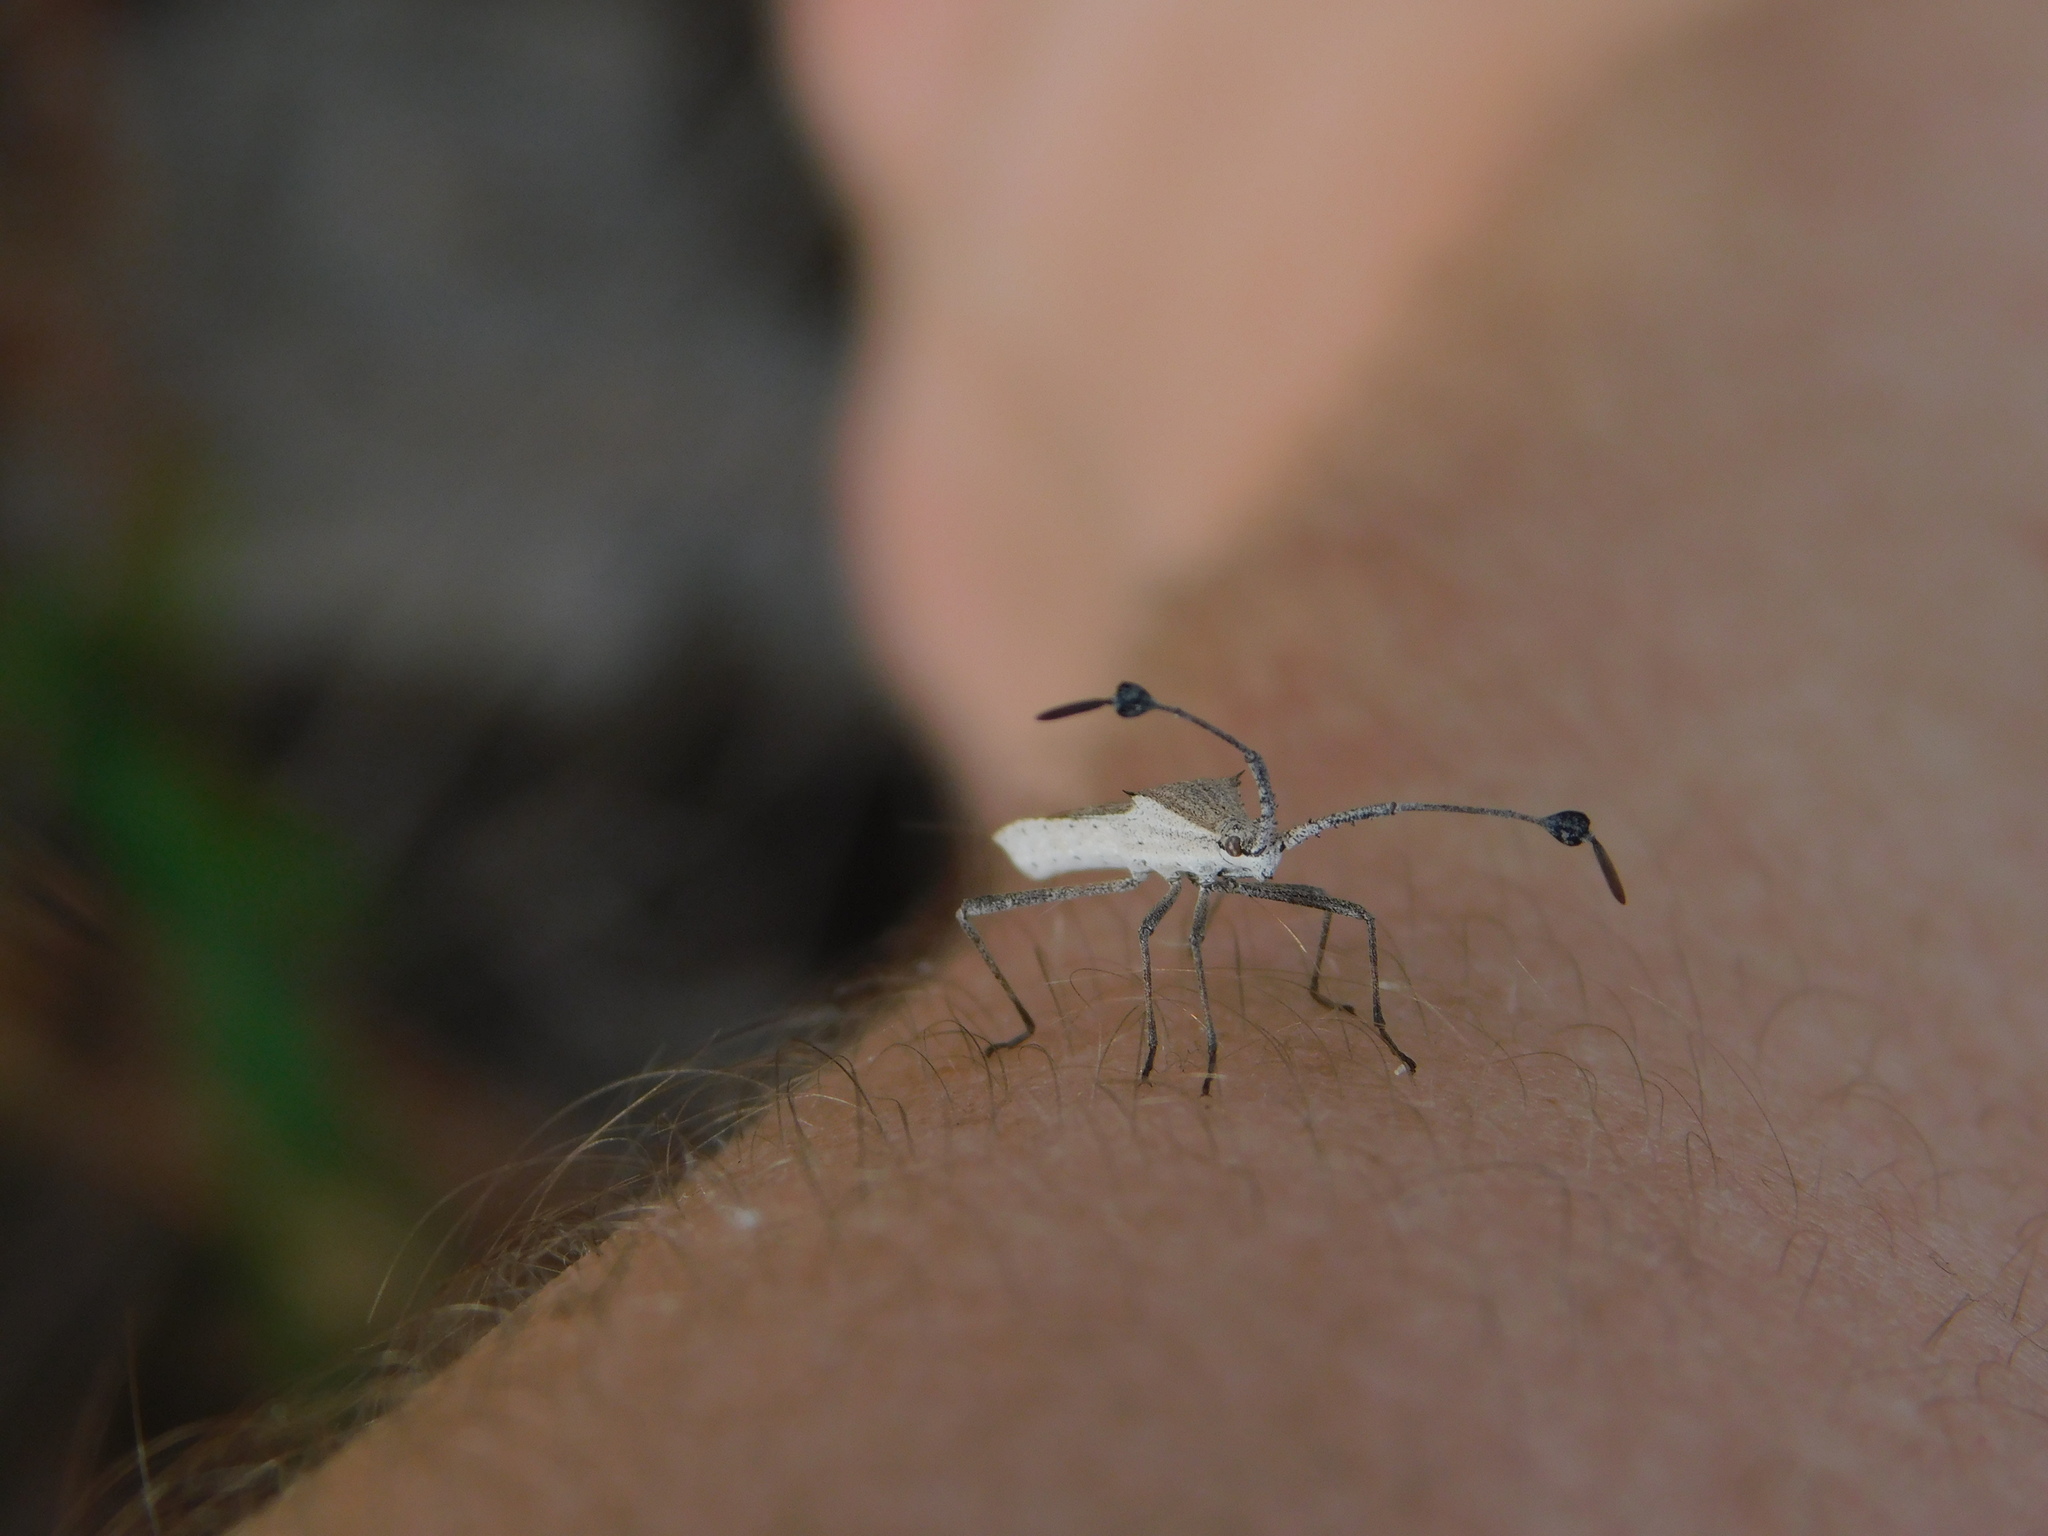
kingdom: Animalia
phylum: Arthropoda
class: Insecta
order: Hemiptera
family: Coreidae
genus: Chariesterus
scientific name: Chariesterus antennator
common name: Flat horned coreid
